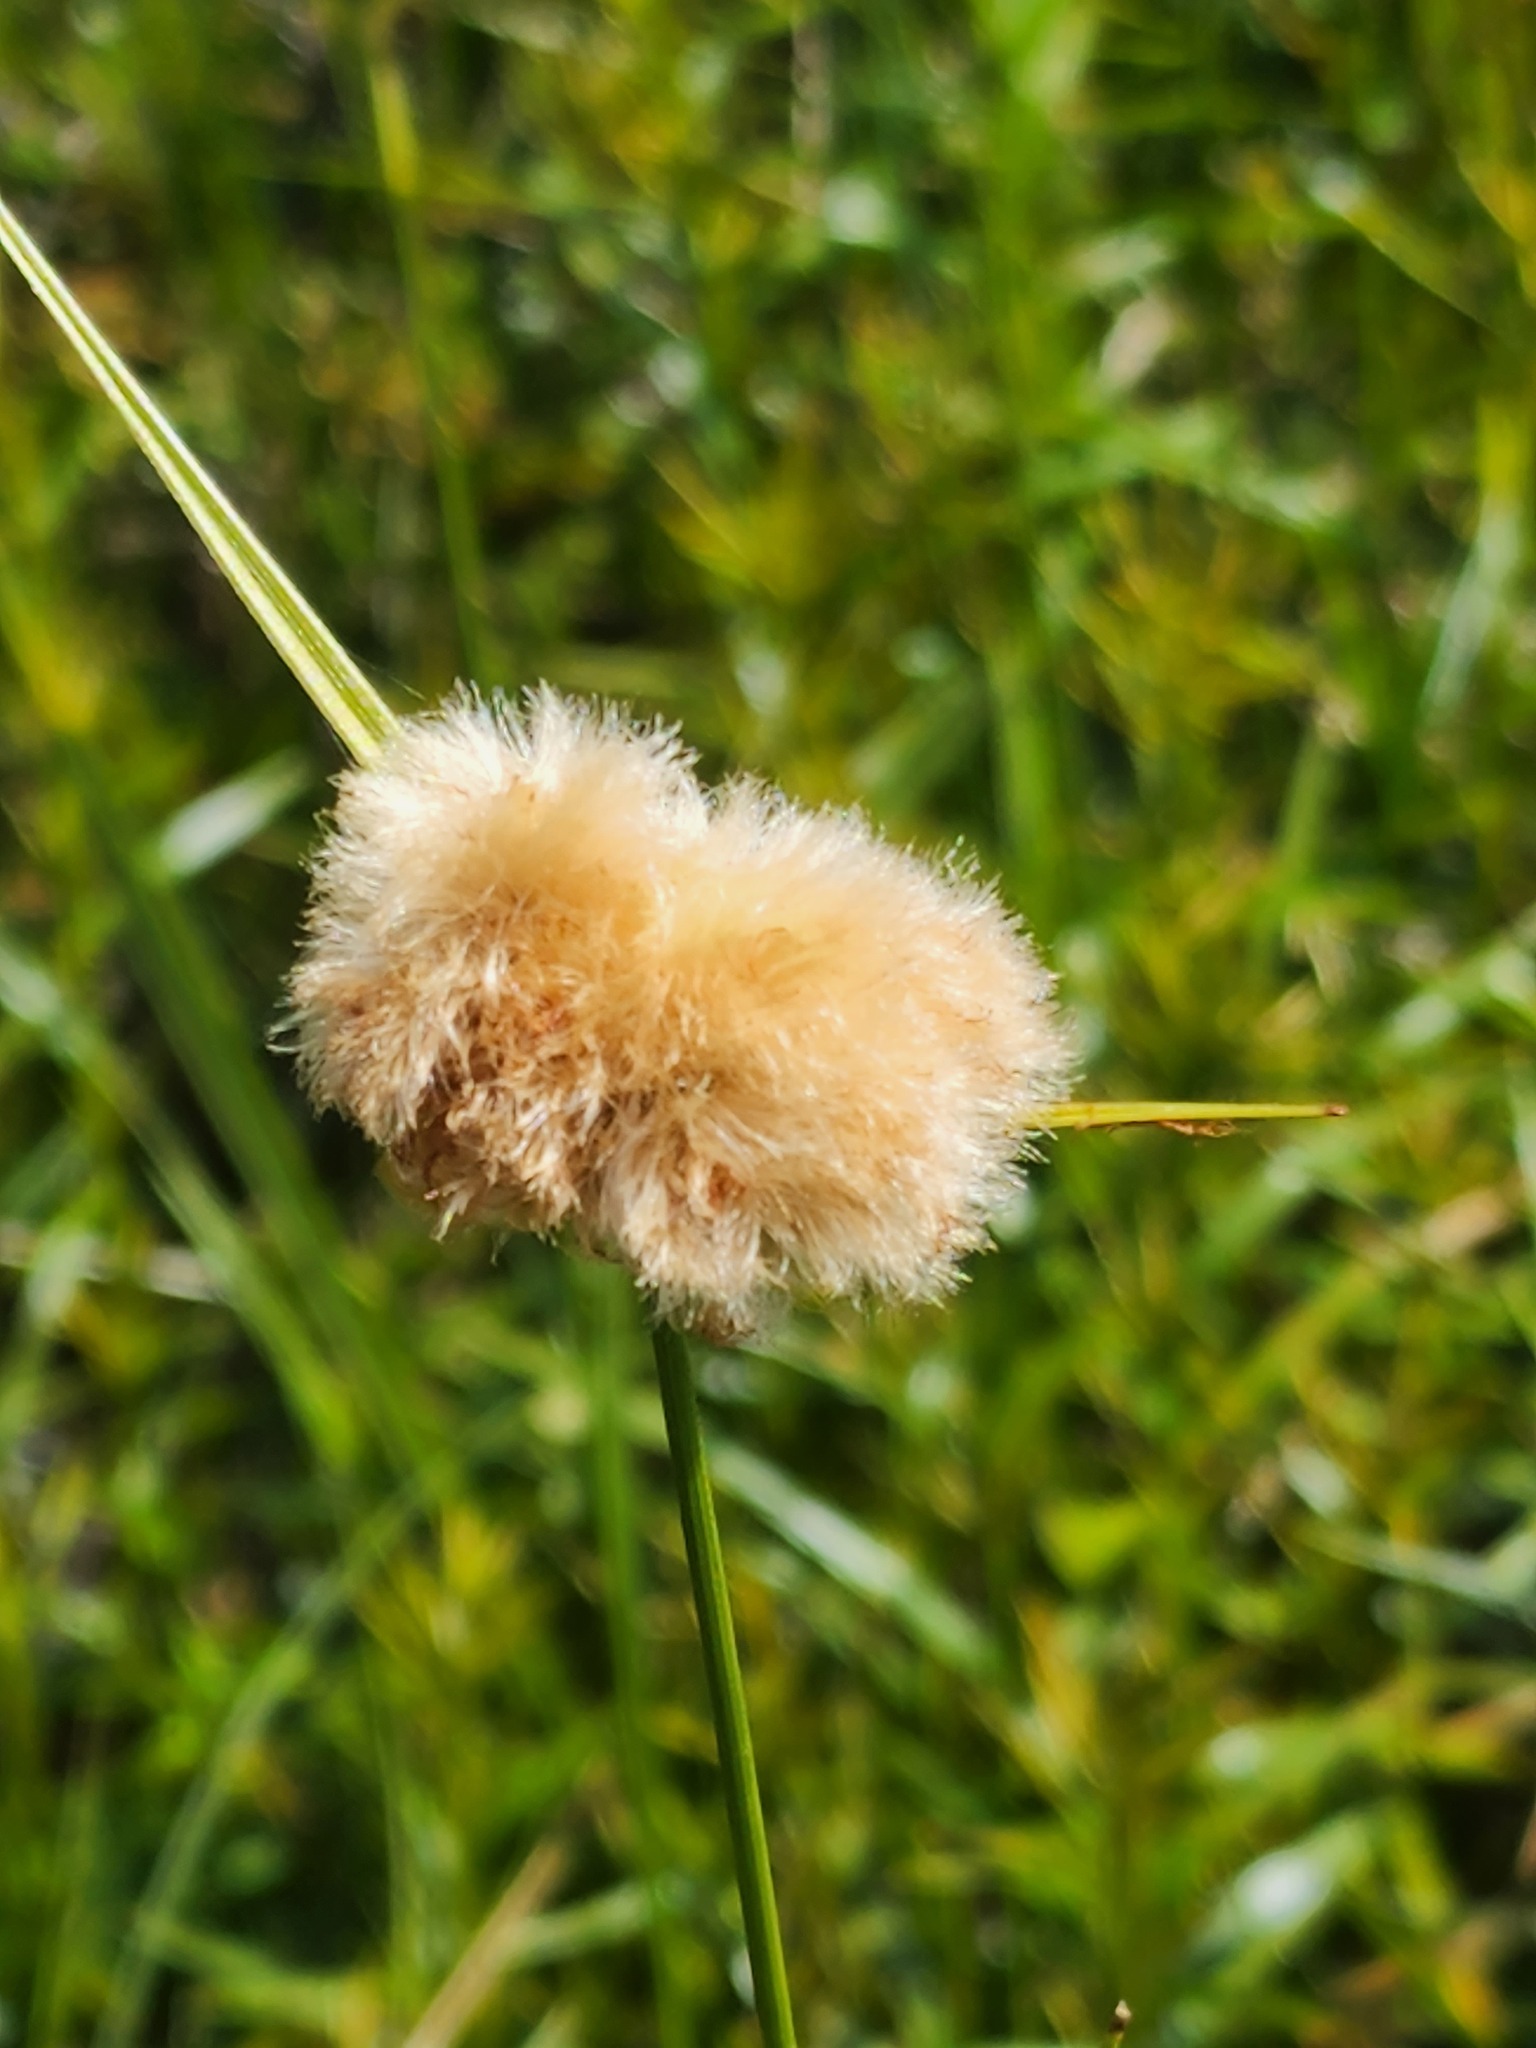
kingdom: Plantae
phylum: Tracheophyta
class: Liliopsida
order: Poales
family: Cyperaceae
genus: Eriophorum
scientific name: Eriophorum virginicum
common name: Tawny cottongrass
